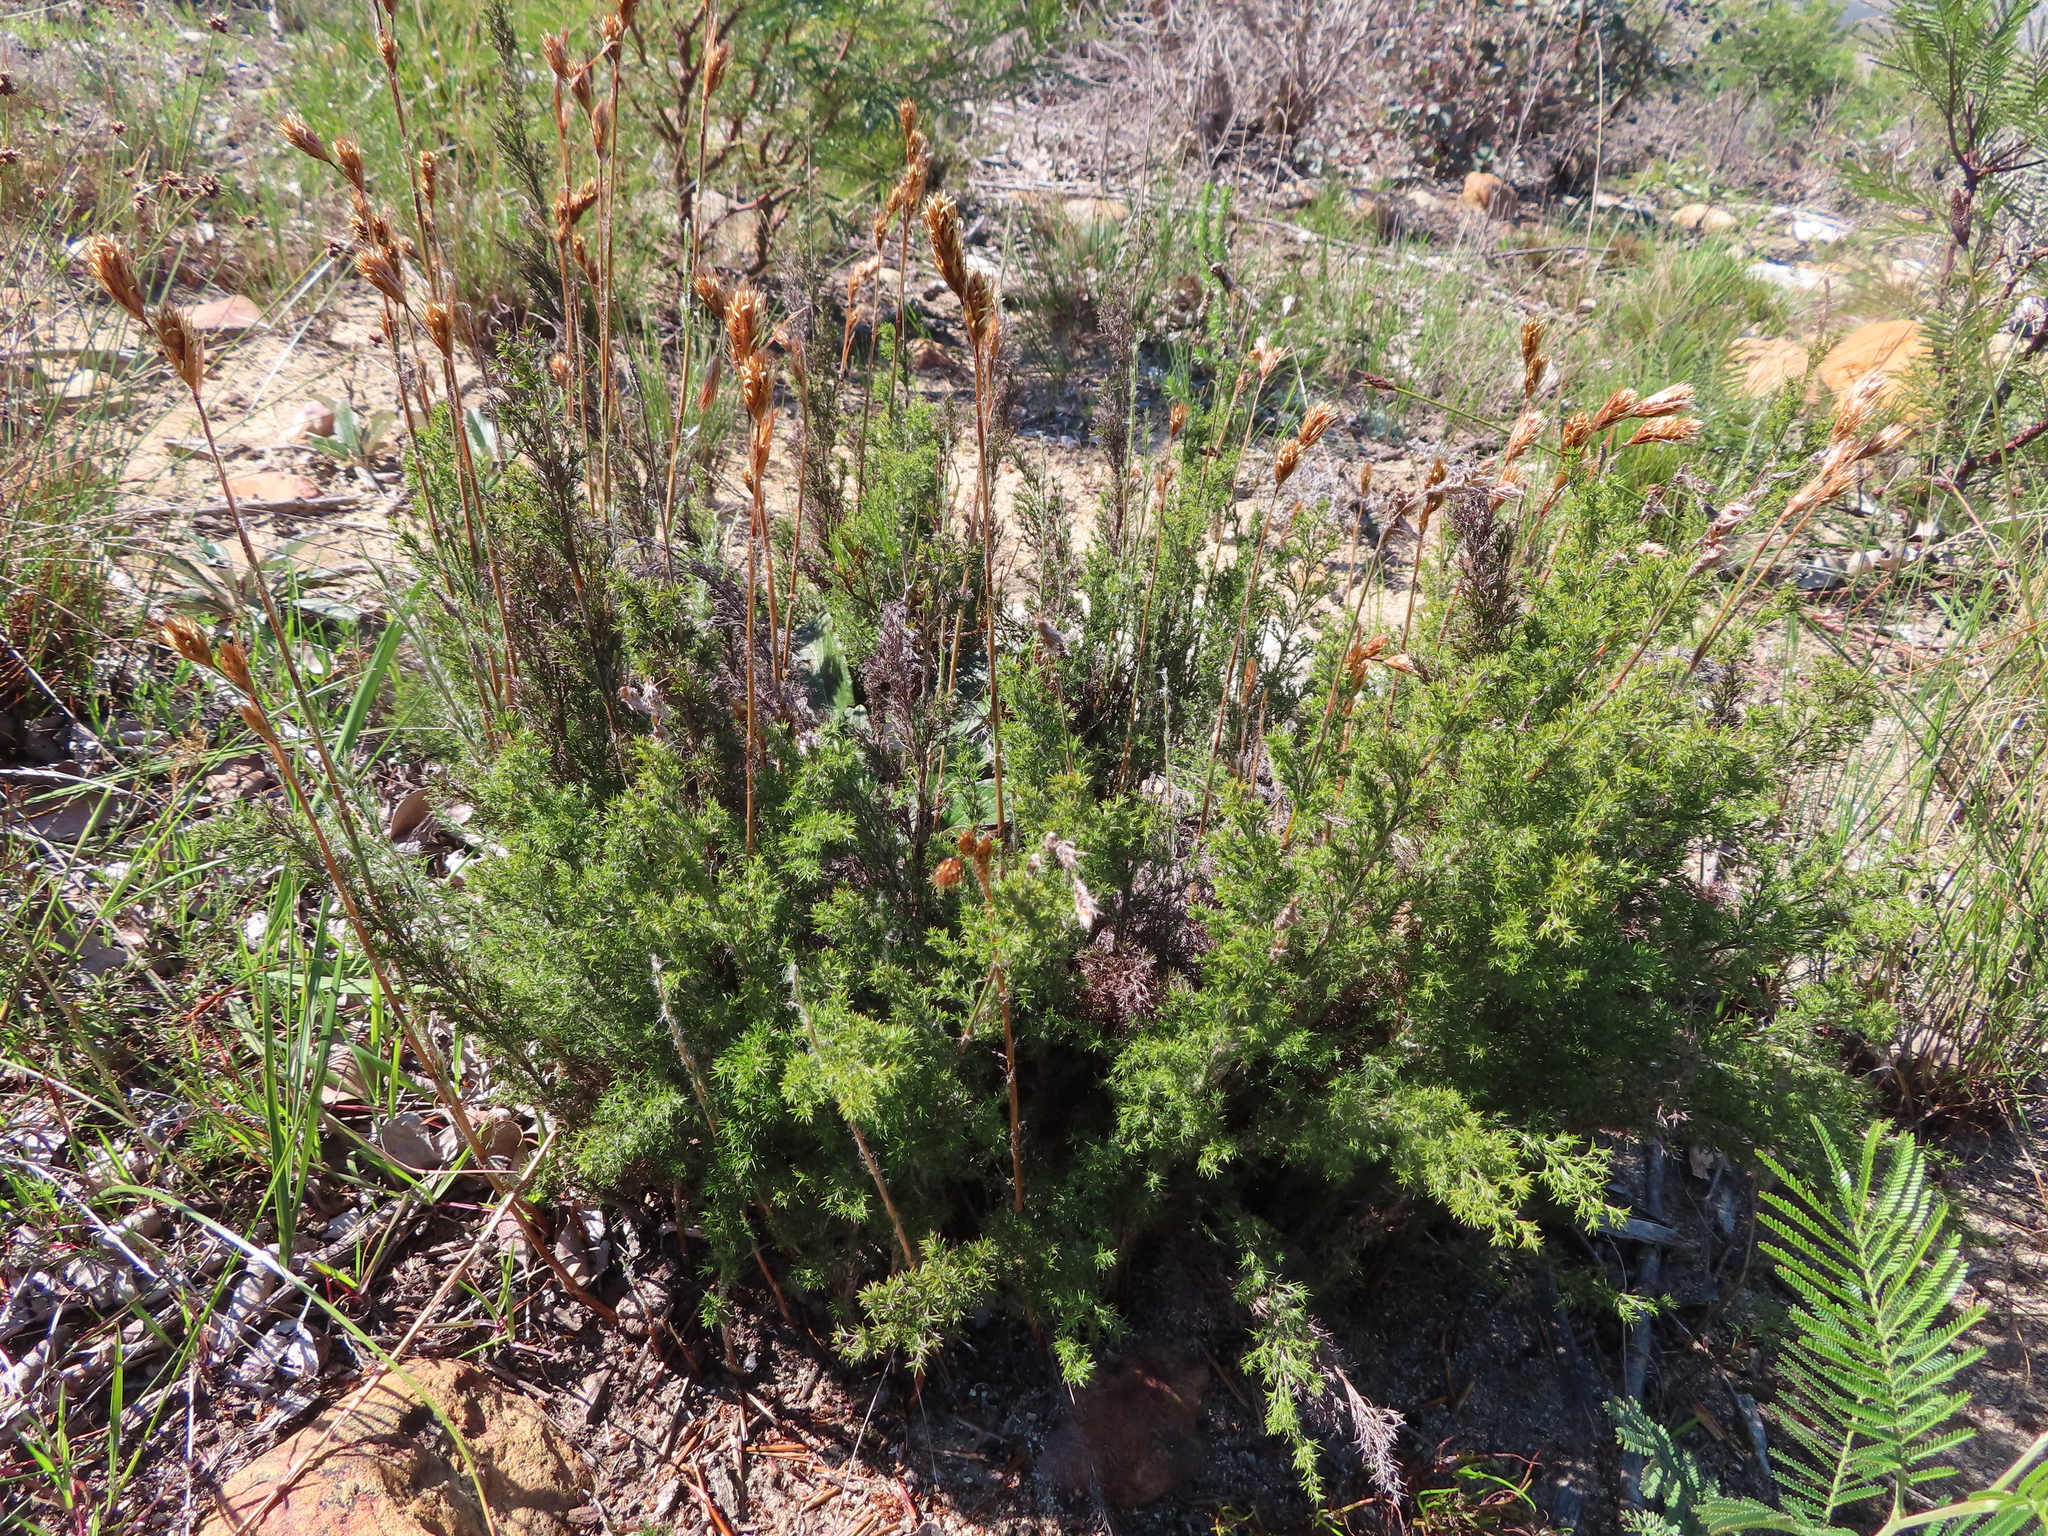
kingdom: Plantae
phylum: Tracheophyta
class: Liliopsida
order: Poales
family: Restionaceae
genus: Thamnochortus
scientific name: Thamnochortus fruticosus
